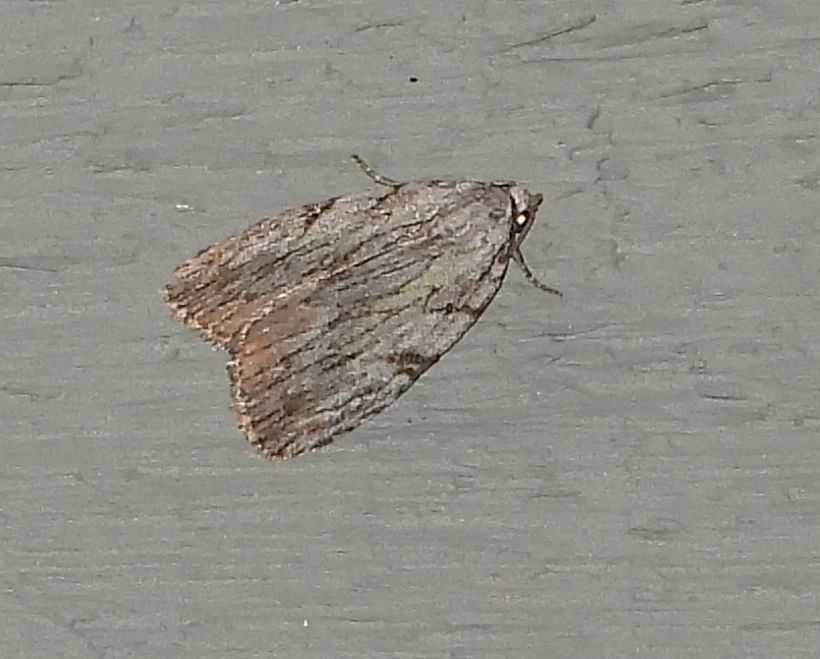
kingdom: Animalia
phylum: Arthropoda
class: Insecta
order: Lepidoptera
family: Noctuidae
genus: Balsa
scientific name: Balsa tristrigella
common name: Three-lined balsa moth
